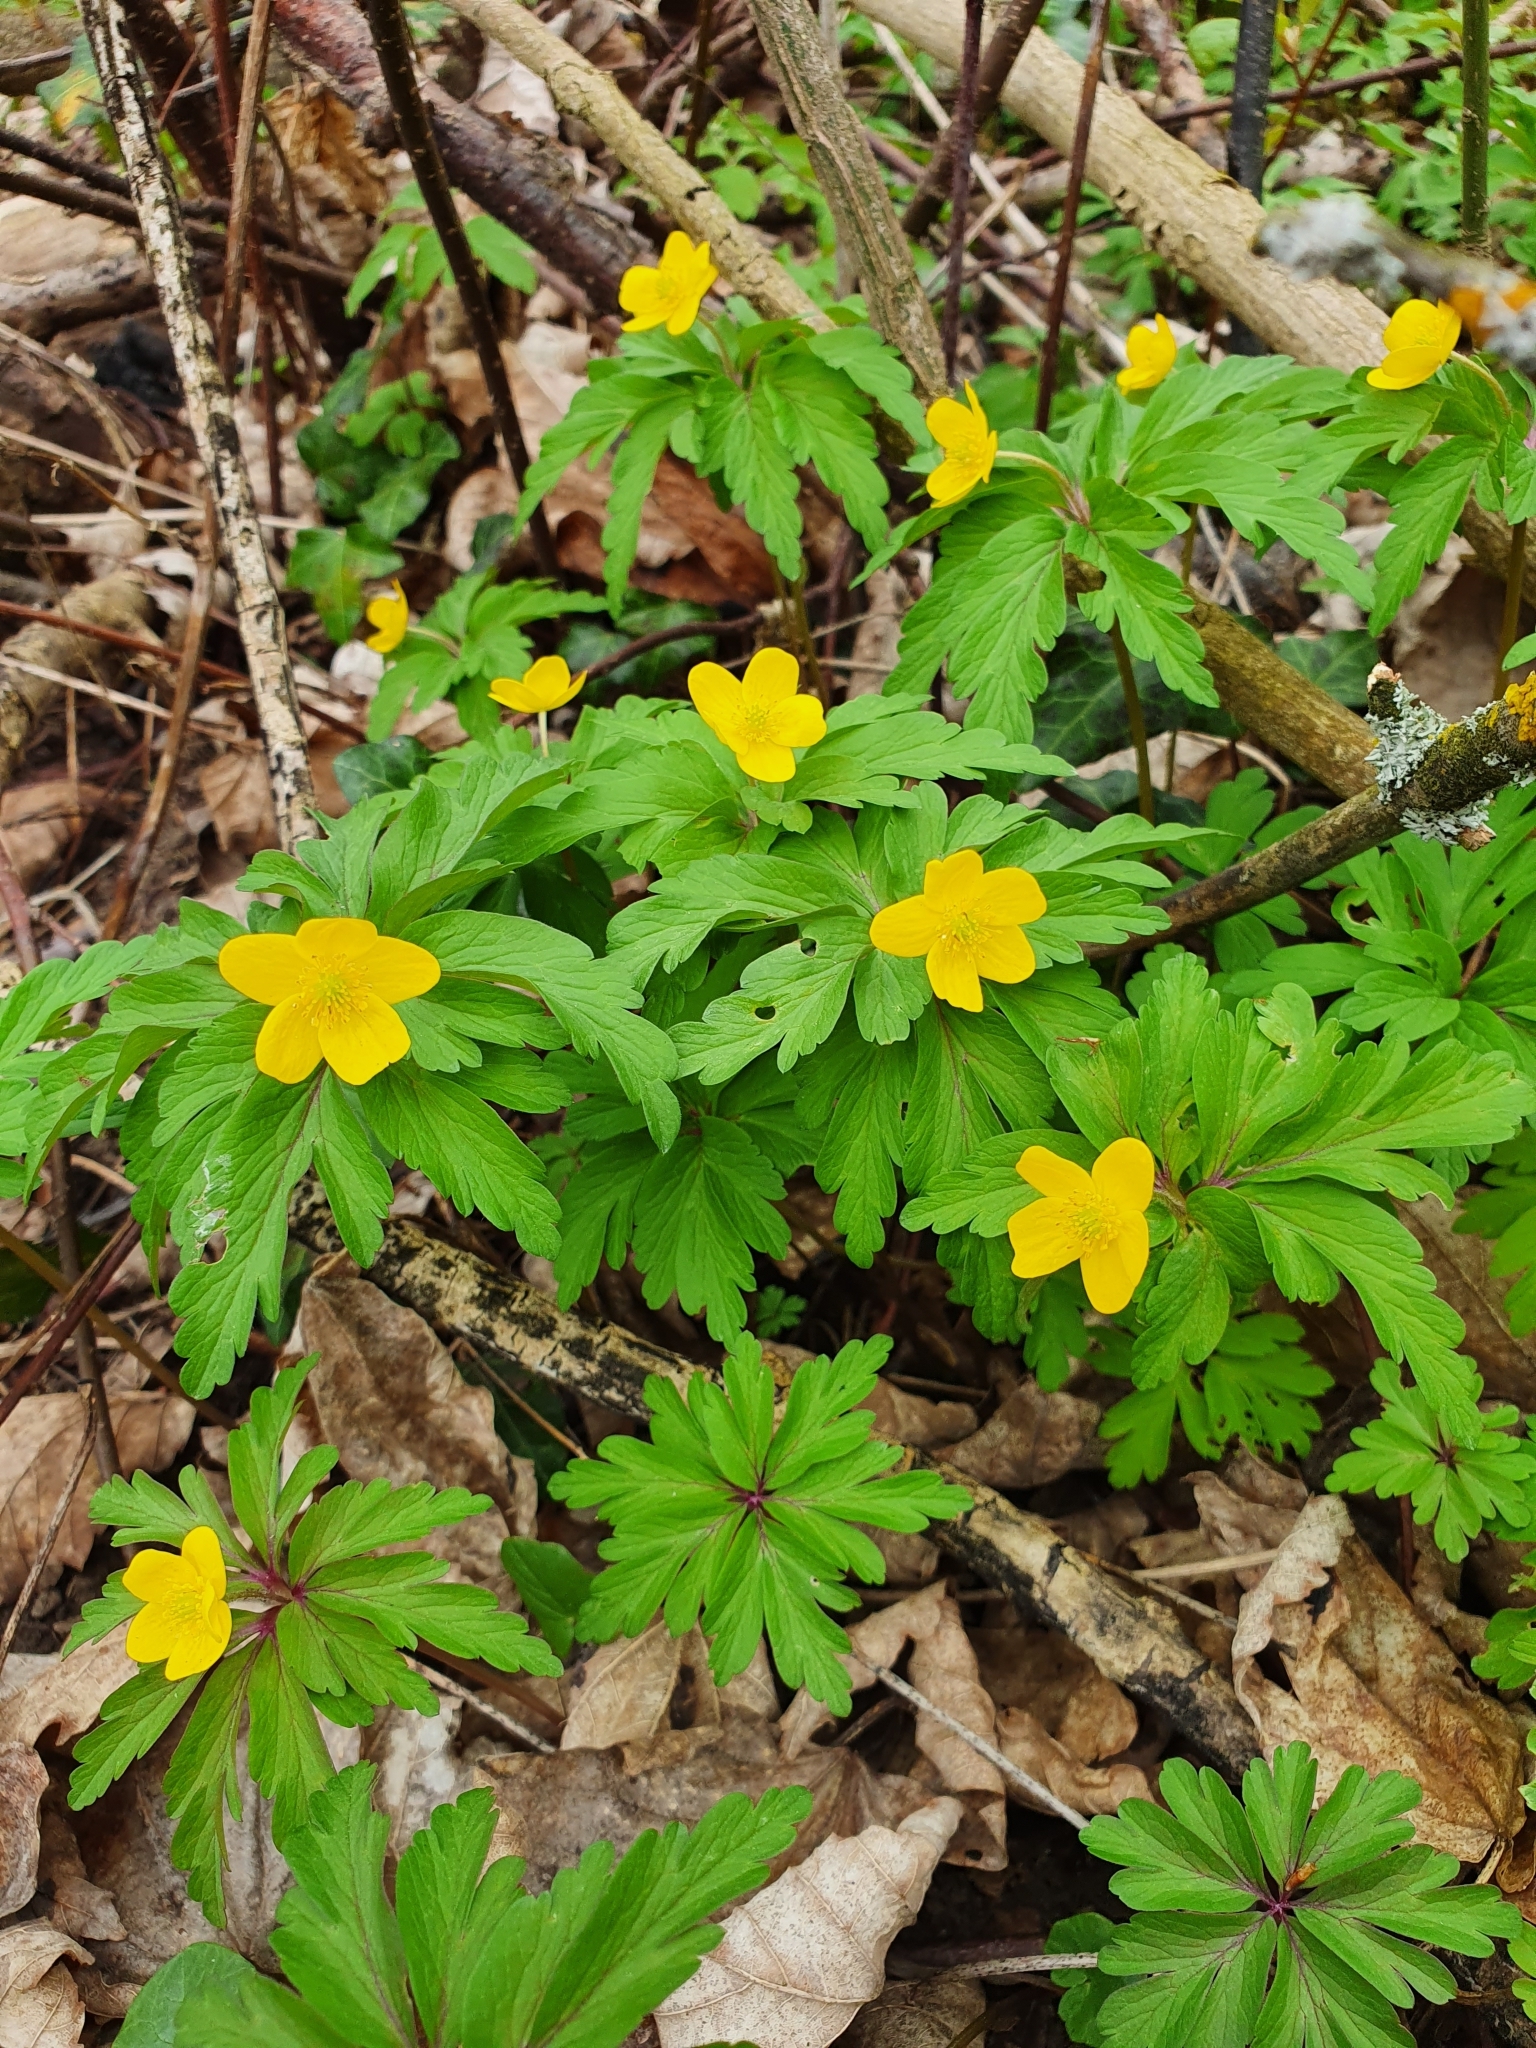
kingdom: Plantae
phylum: Tracheophyta
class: Magnoliopsida
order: Ranunculales
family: Ranunculaceae
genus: Anemone
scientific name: Anemone ranunculoides
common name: Yellow anemone
